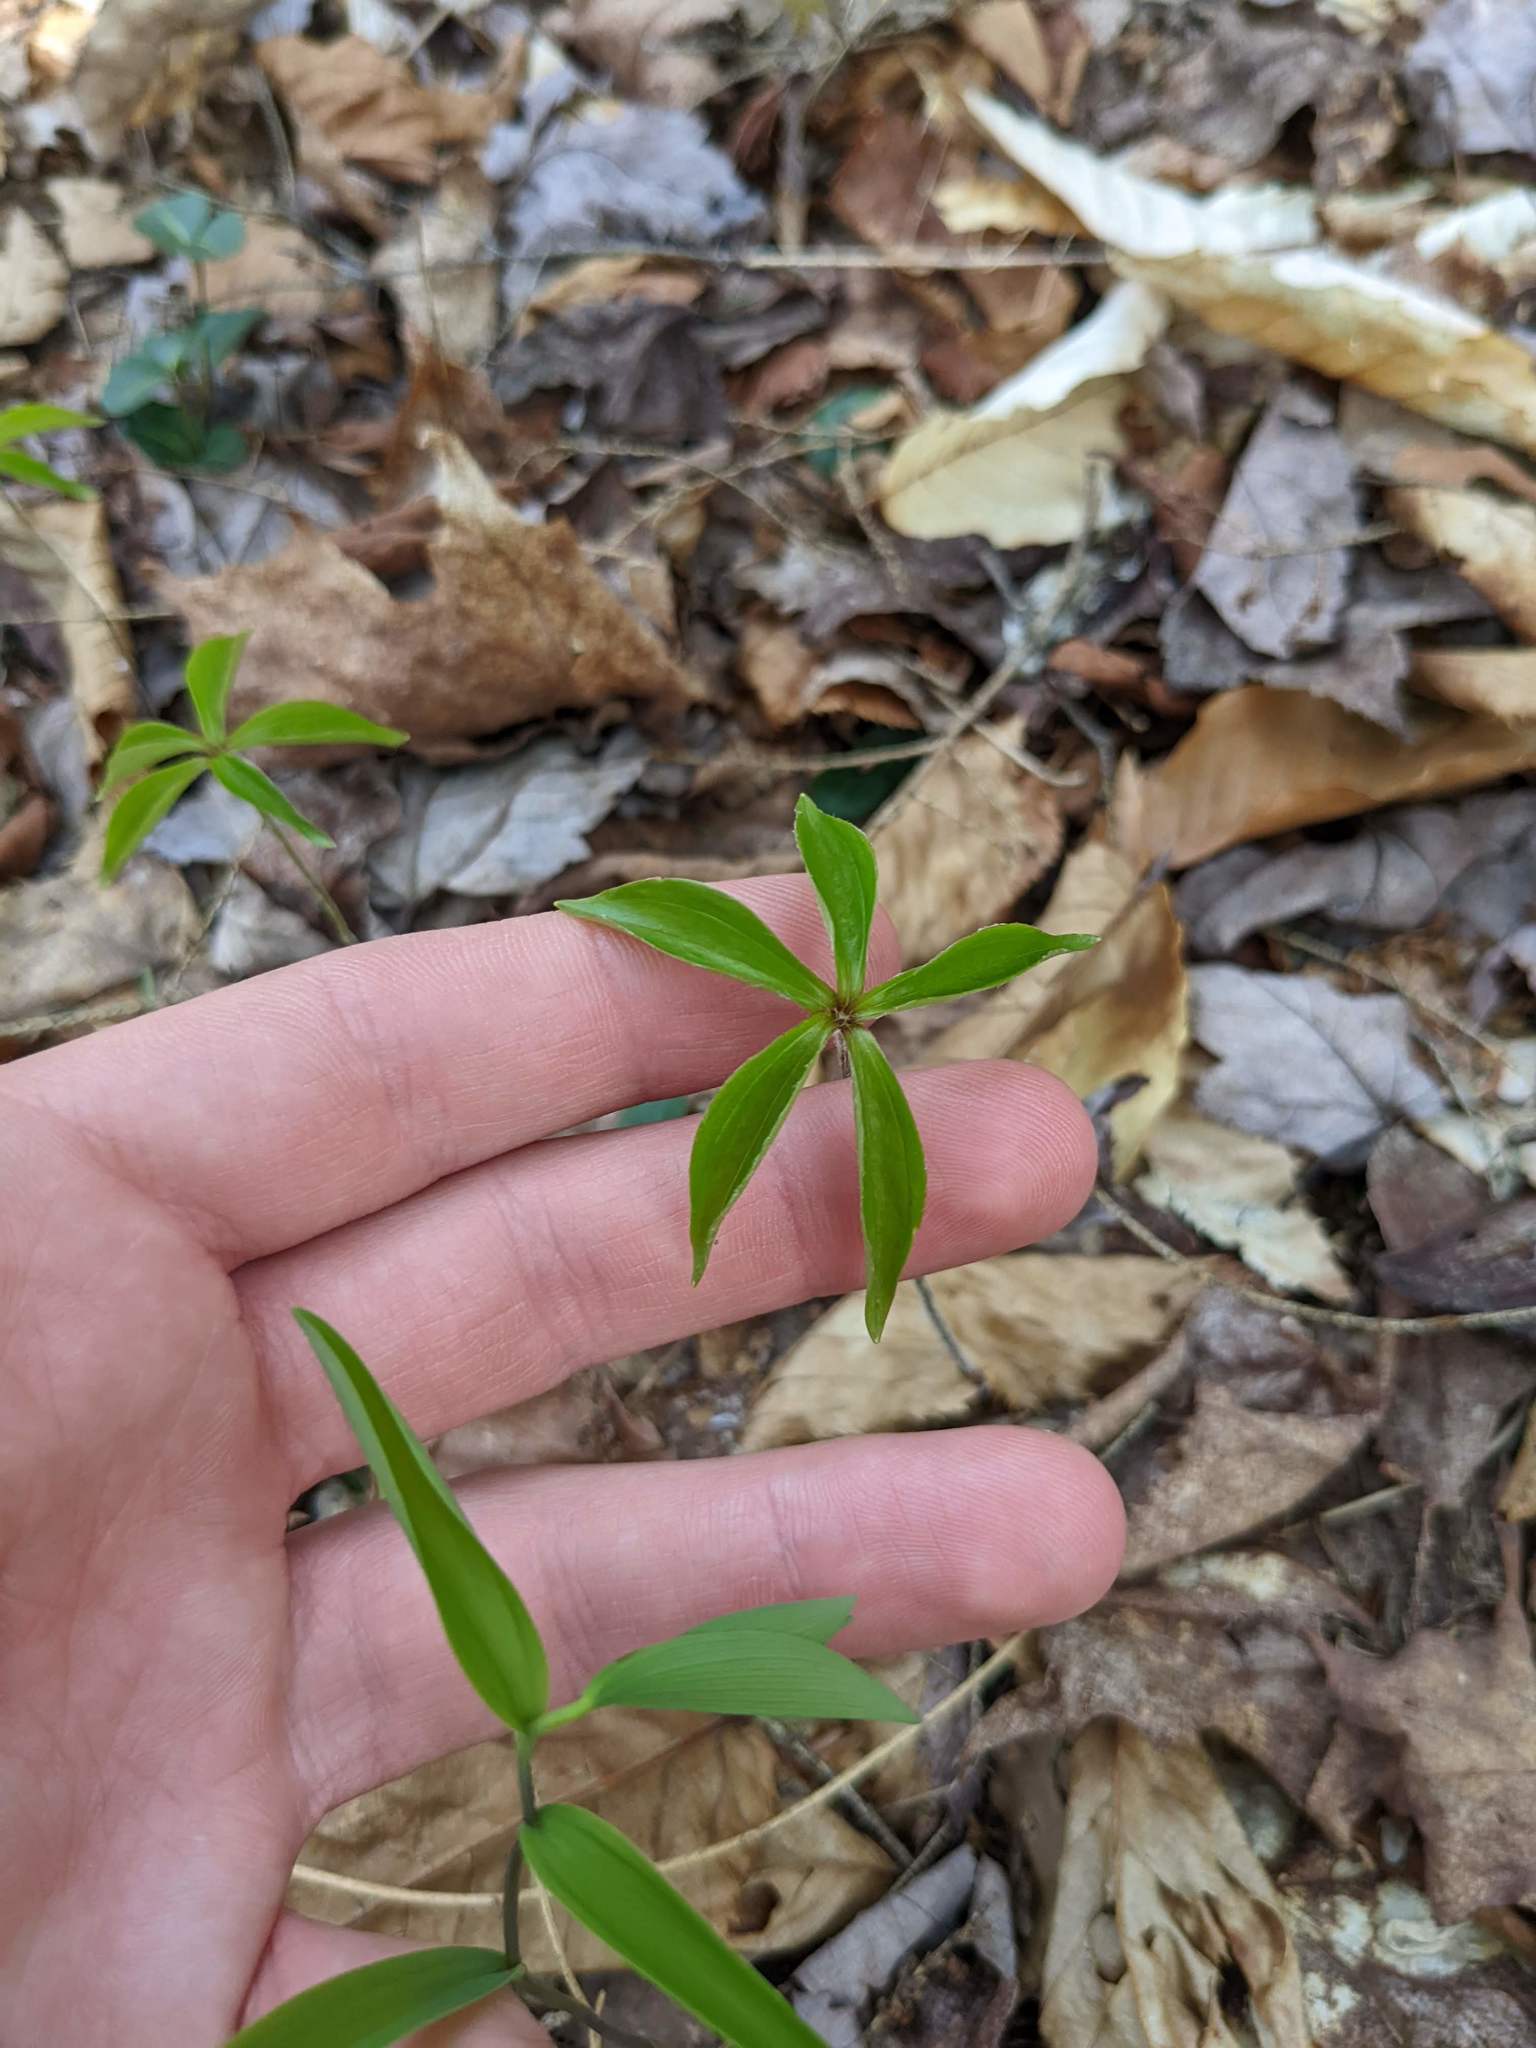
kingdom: Plantae
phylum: Tracheophyta
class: Liliopsida
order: Liliales
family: Liliaceae
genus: Medeola
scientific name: Medeola virginiana
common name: Indian cucumber-root
